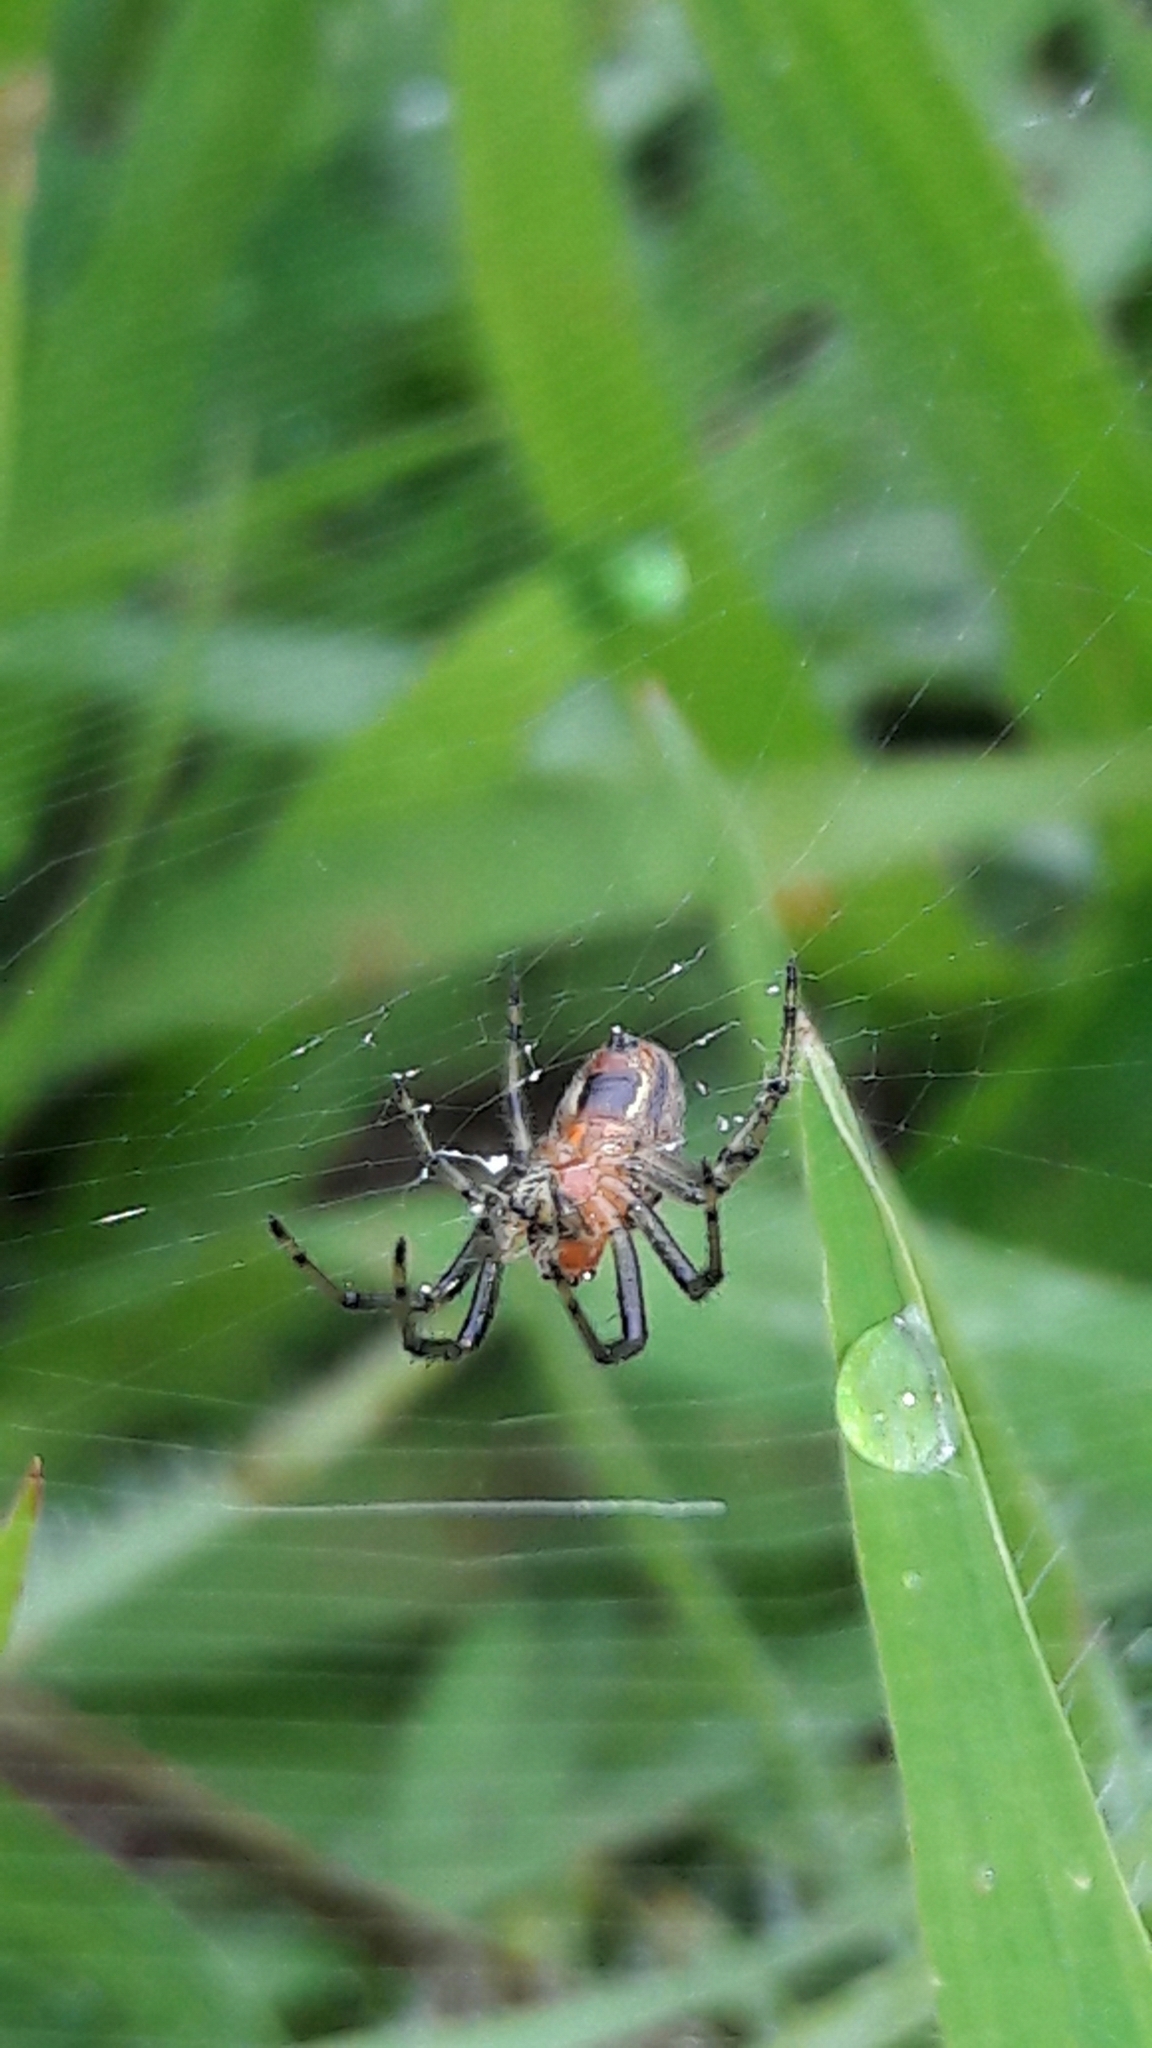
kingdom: Animalia
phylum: Arthropoda
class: Arachnida
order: Araneae
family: Araneidae
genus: Alpaida
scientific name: Alpaida veniliae
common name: Orb weavers
